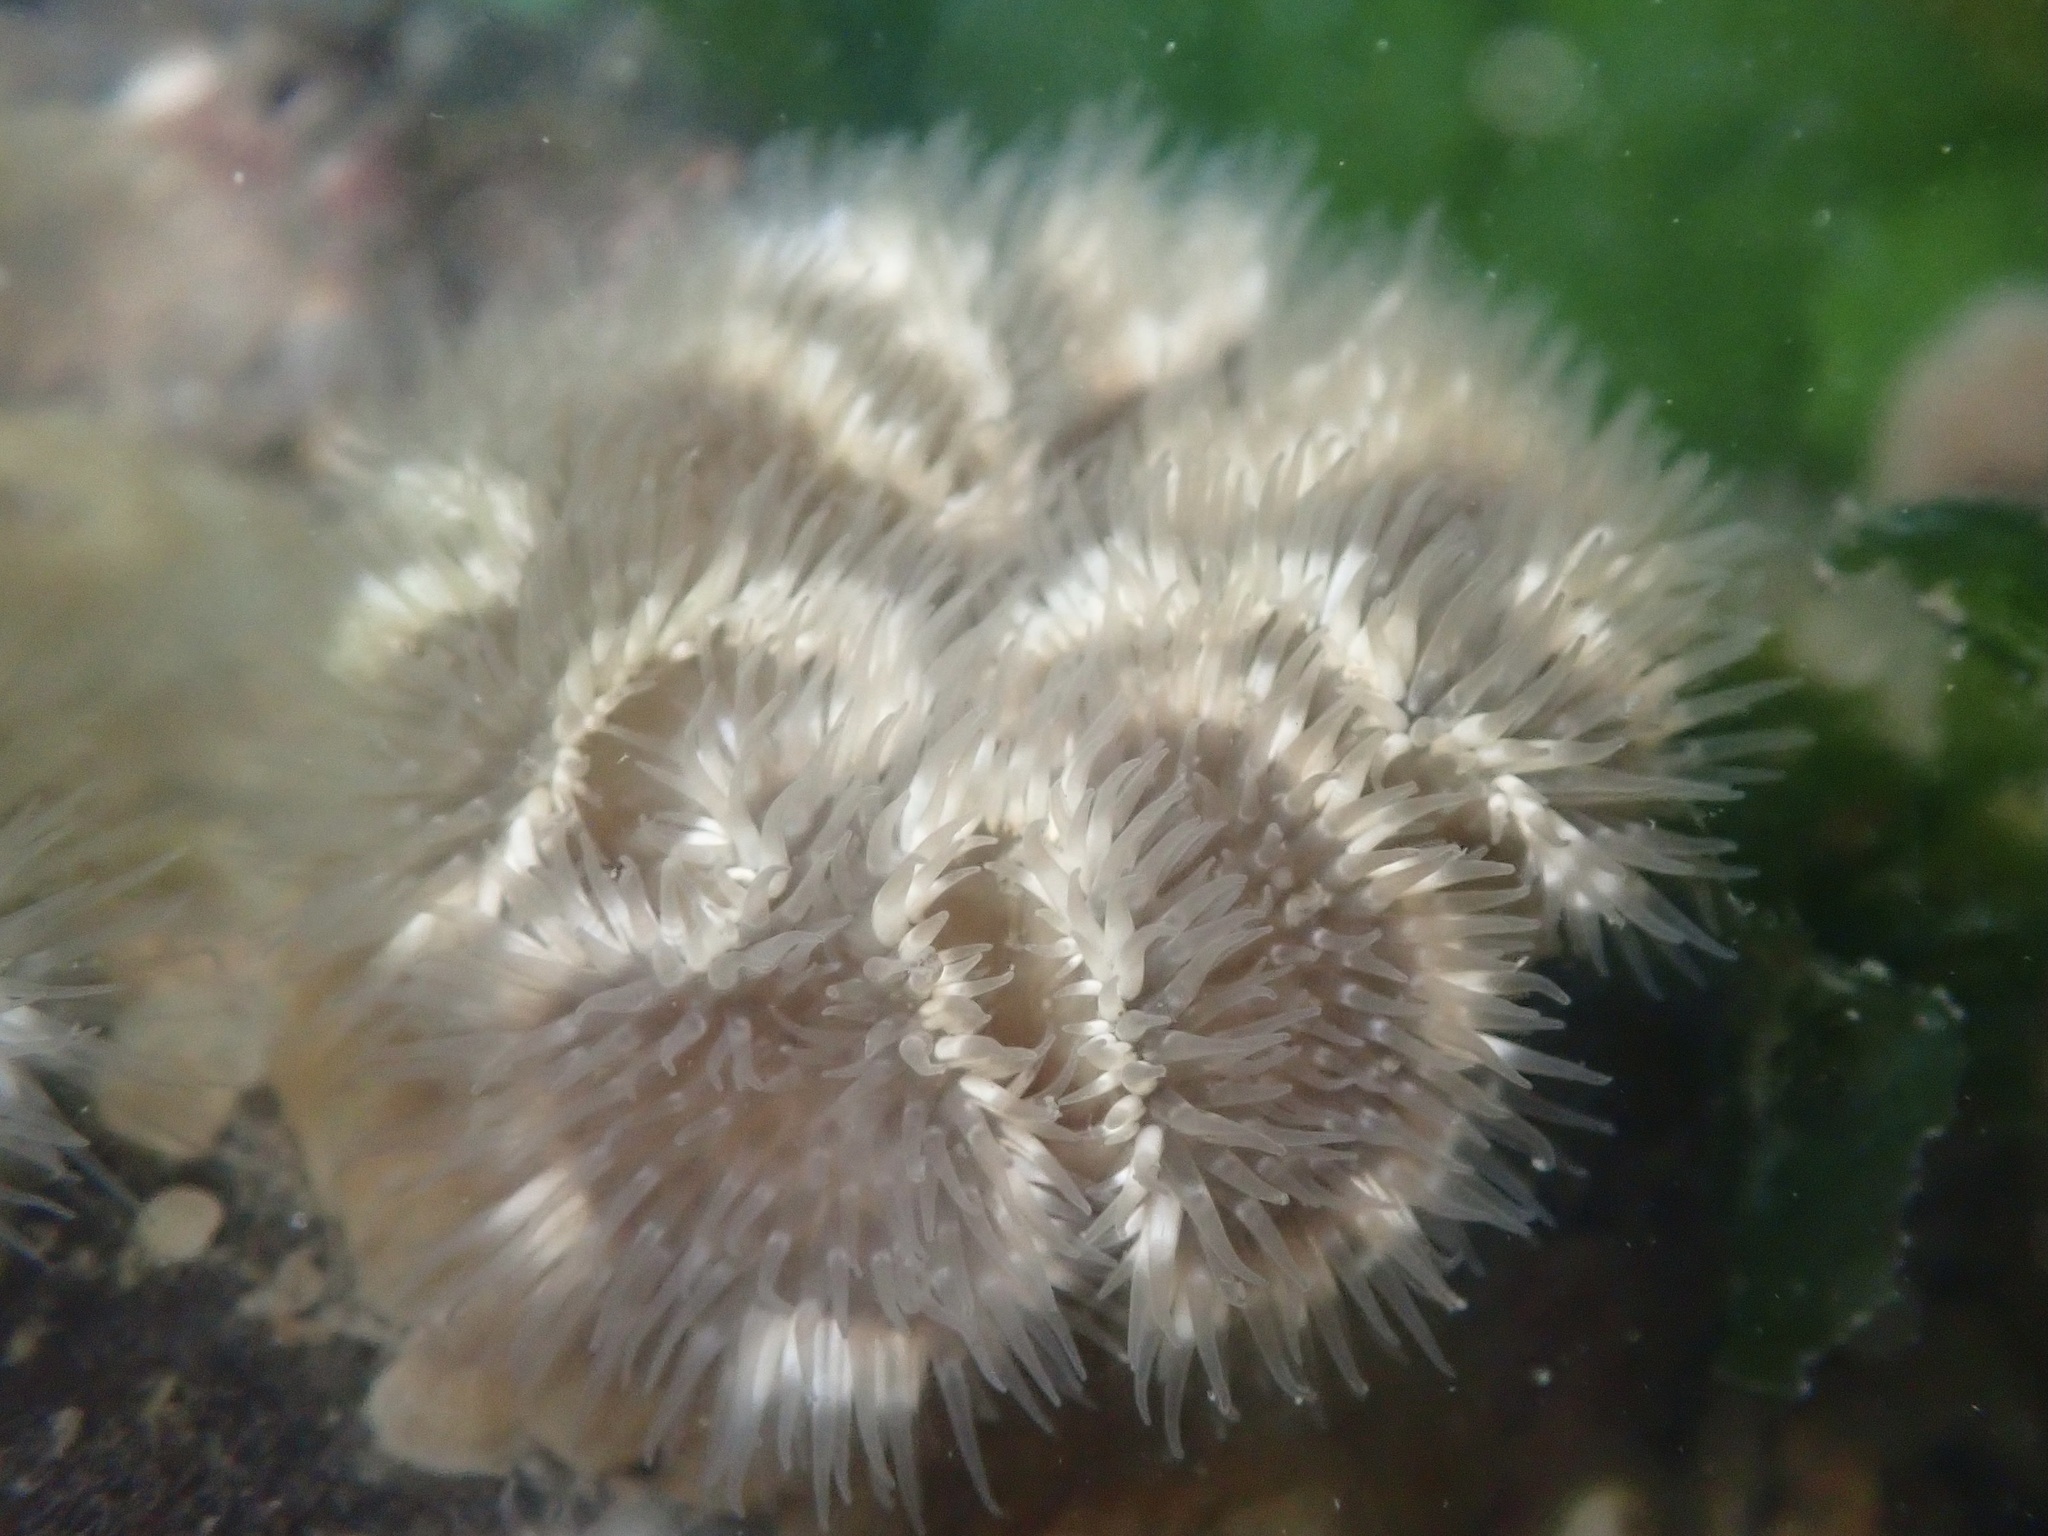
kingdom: Animalia
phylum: Cnidaria
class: Anthozoa
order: Actiniaria
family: Metridiidae
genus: Metridium
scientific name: Metridium senile
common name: Clonal plumose anemone
